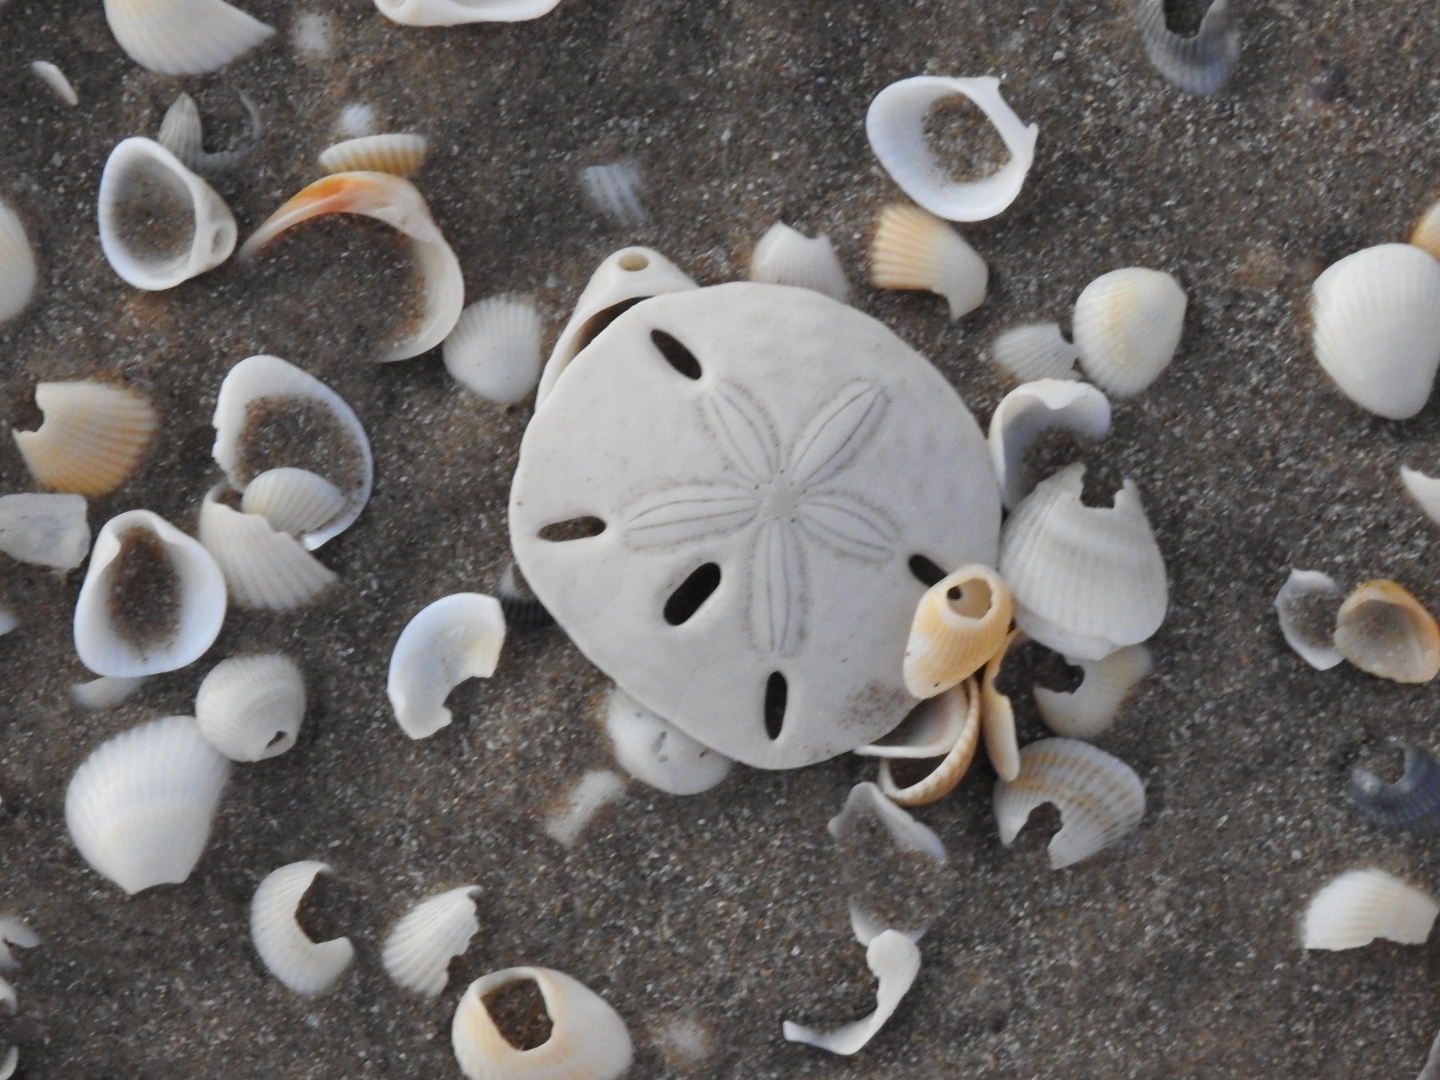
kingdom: Animalia
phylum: Echinodermata
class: Echinoidea
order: Echinolampadacea
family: Mellitidae
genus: Mellita
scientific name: Mellita quinquiesperforata
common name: Sand dollar
